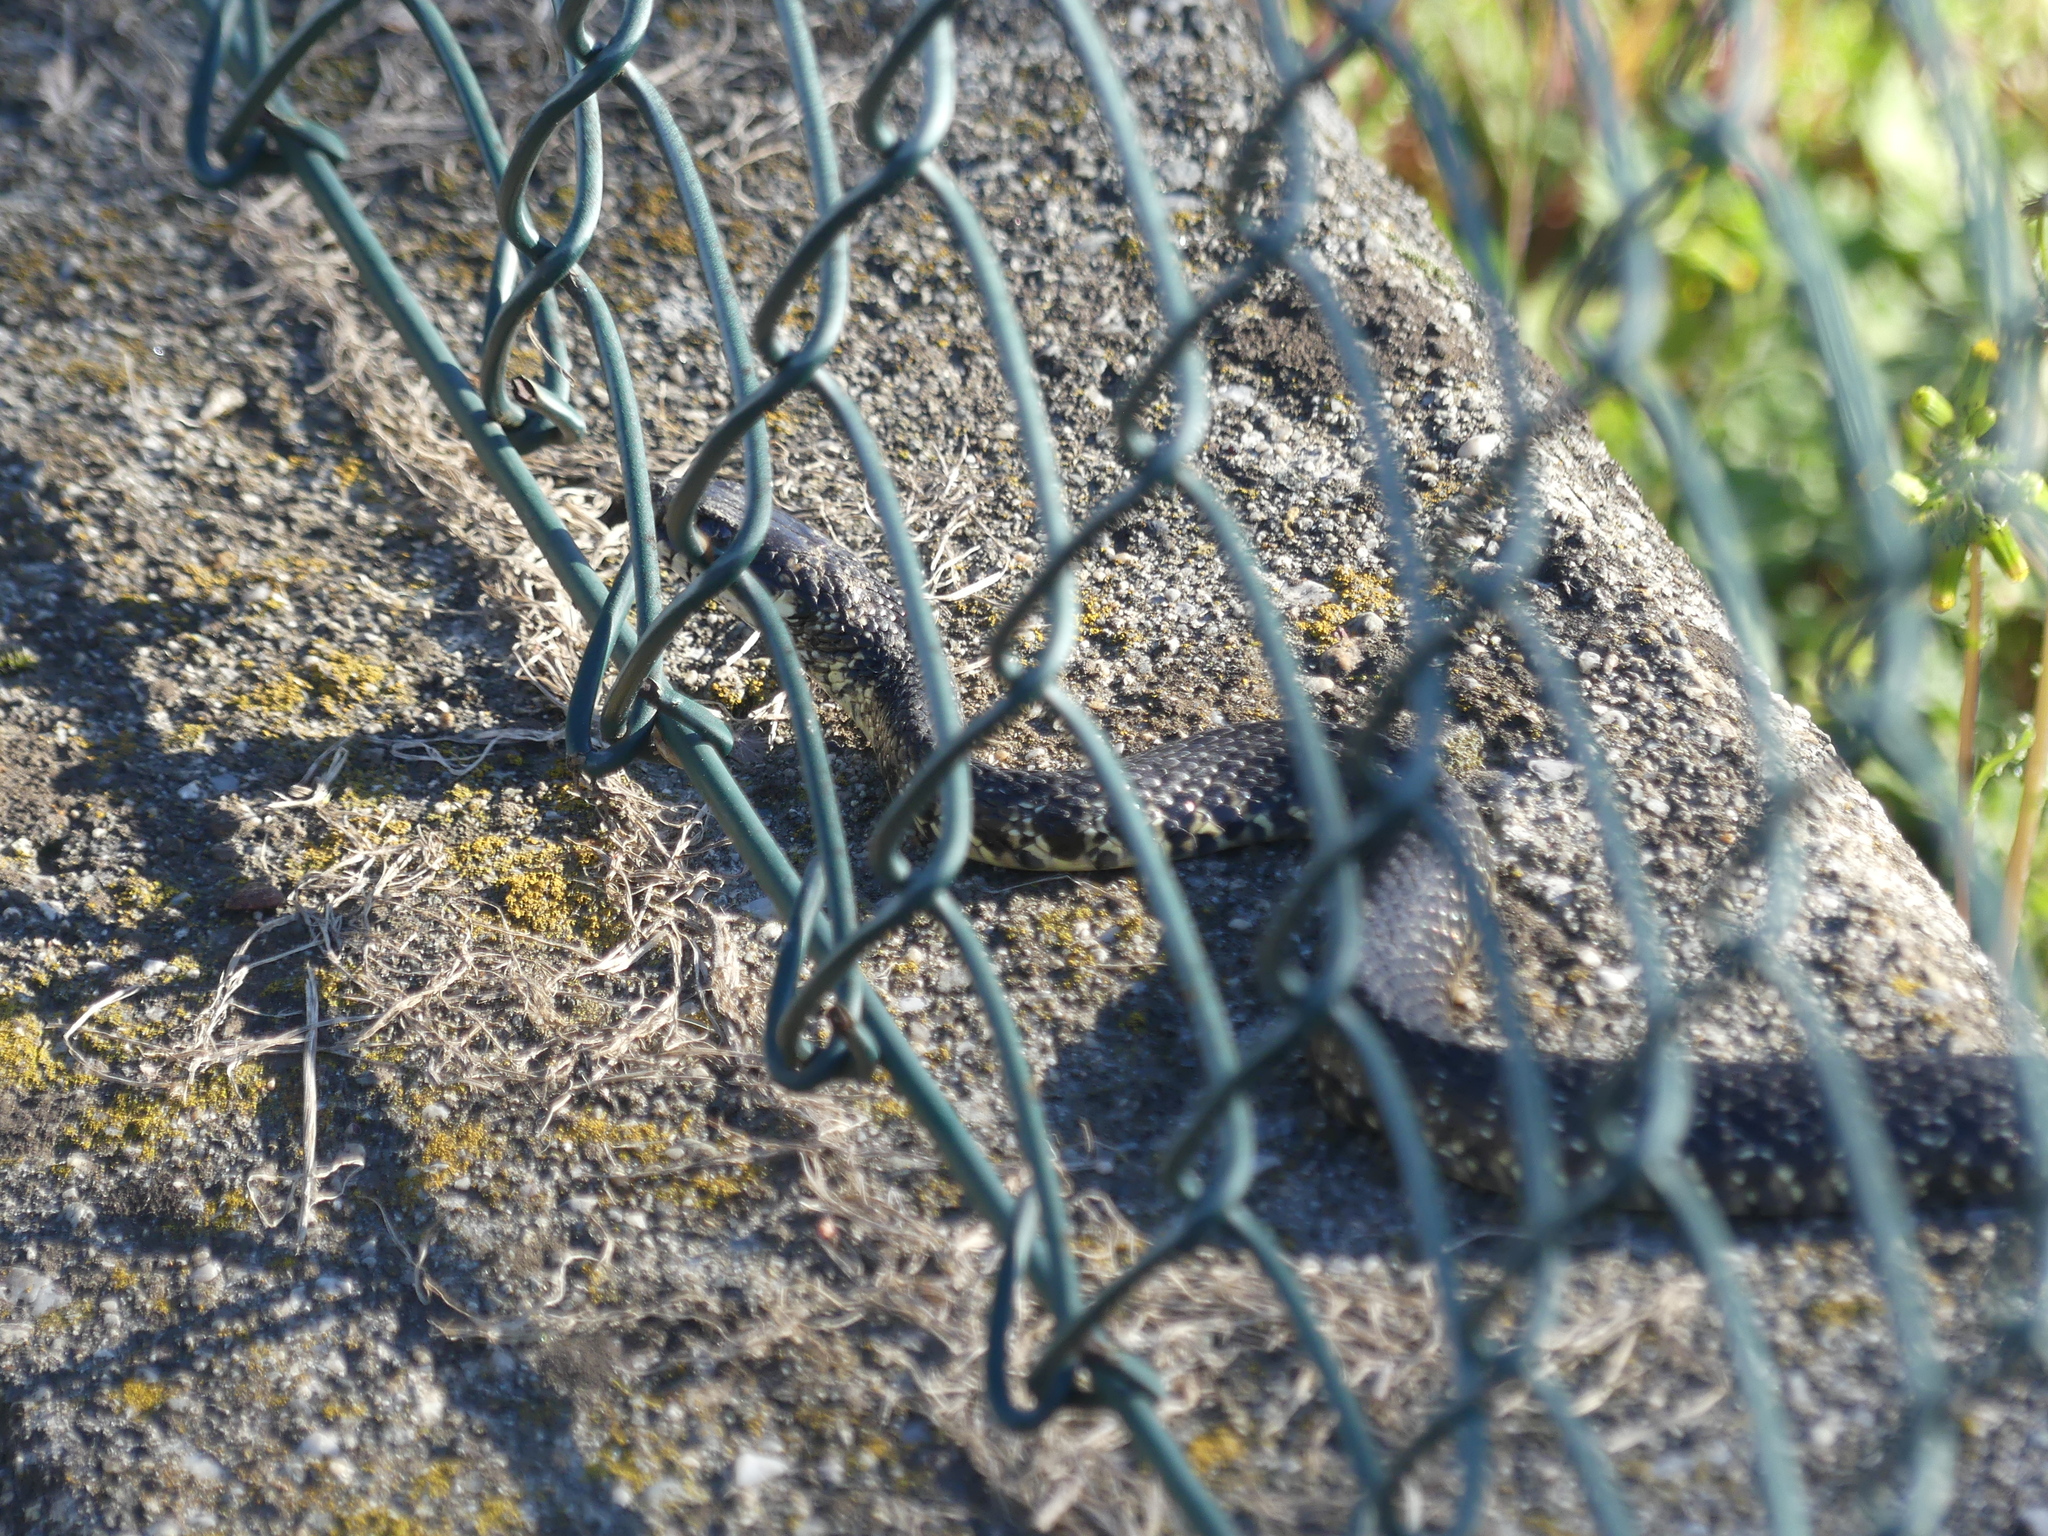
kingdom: Animalia
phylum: Chordata
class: Squamata
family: Colubridae
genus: Hierophis
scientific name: Hierophis viridiflavus
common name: Green whip snake
